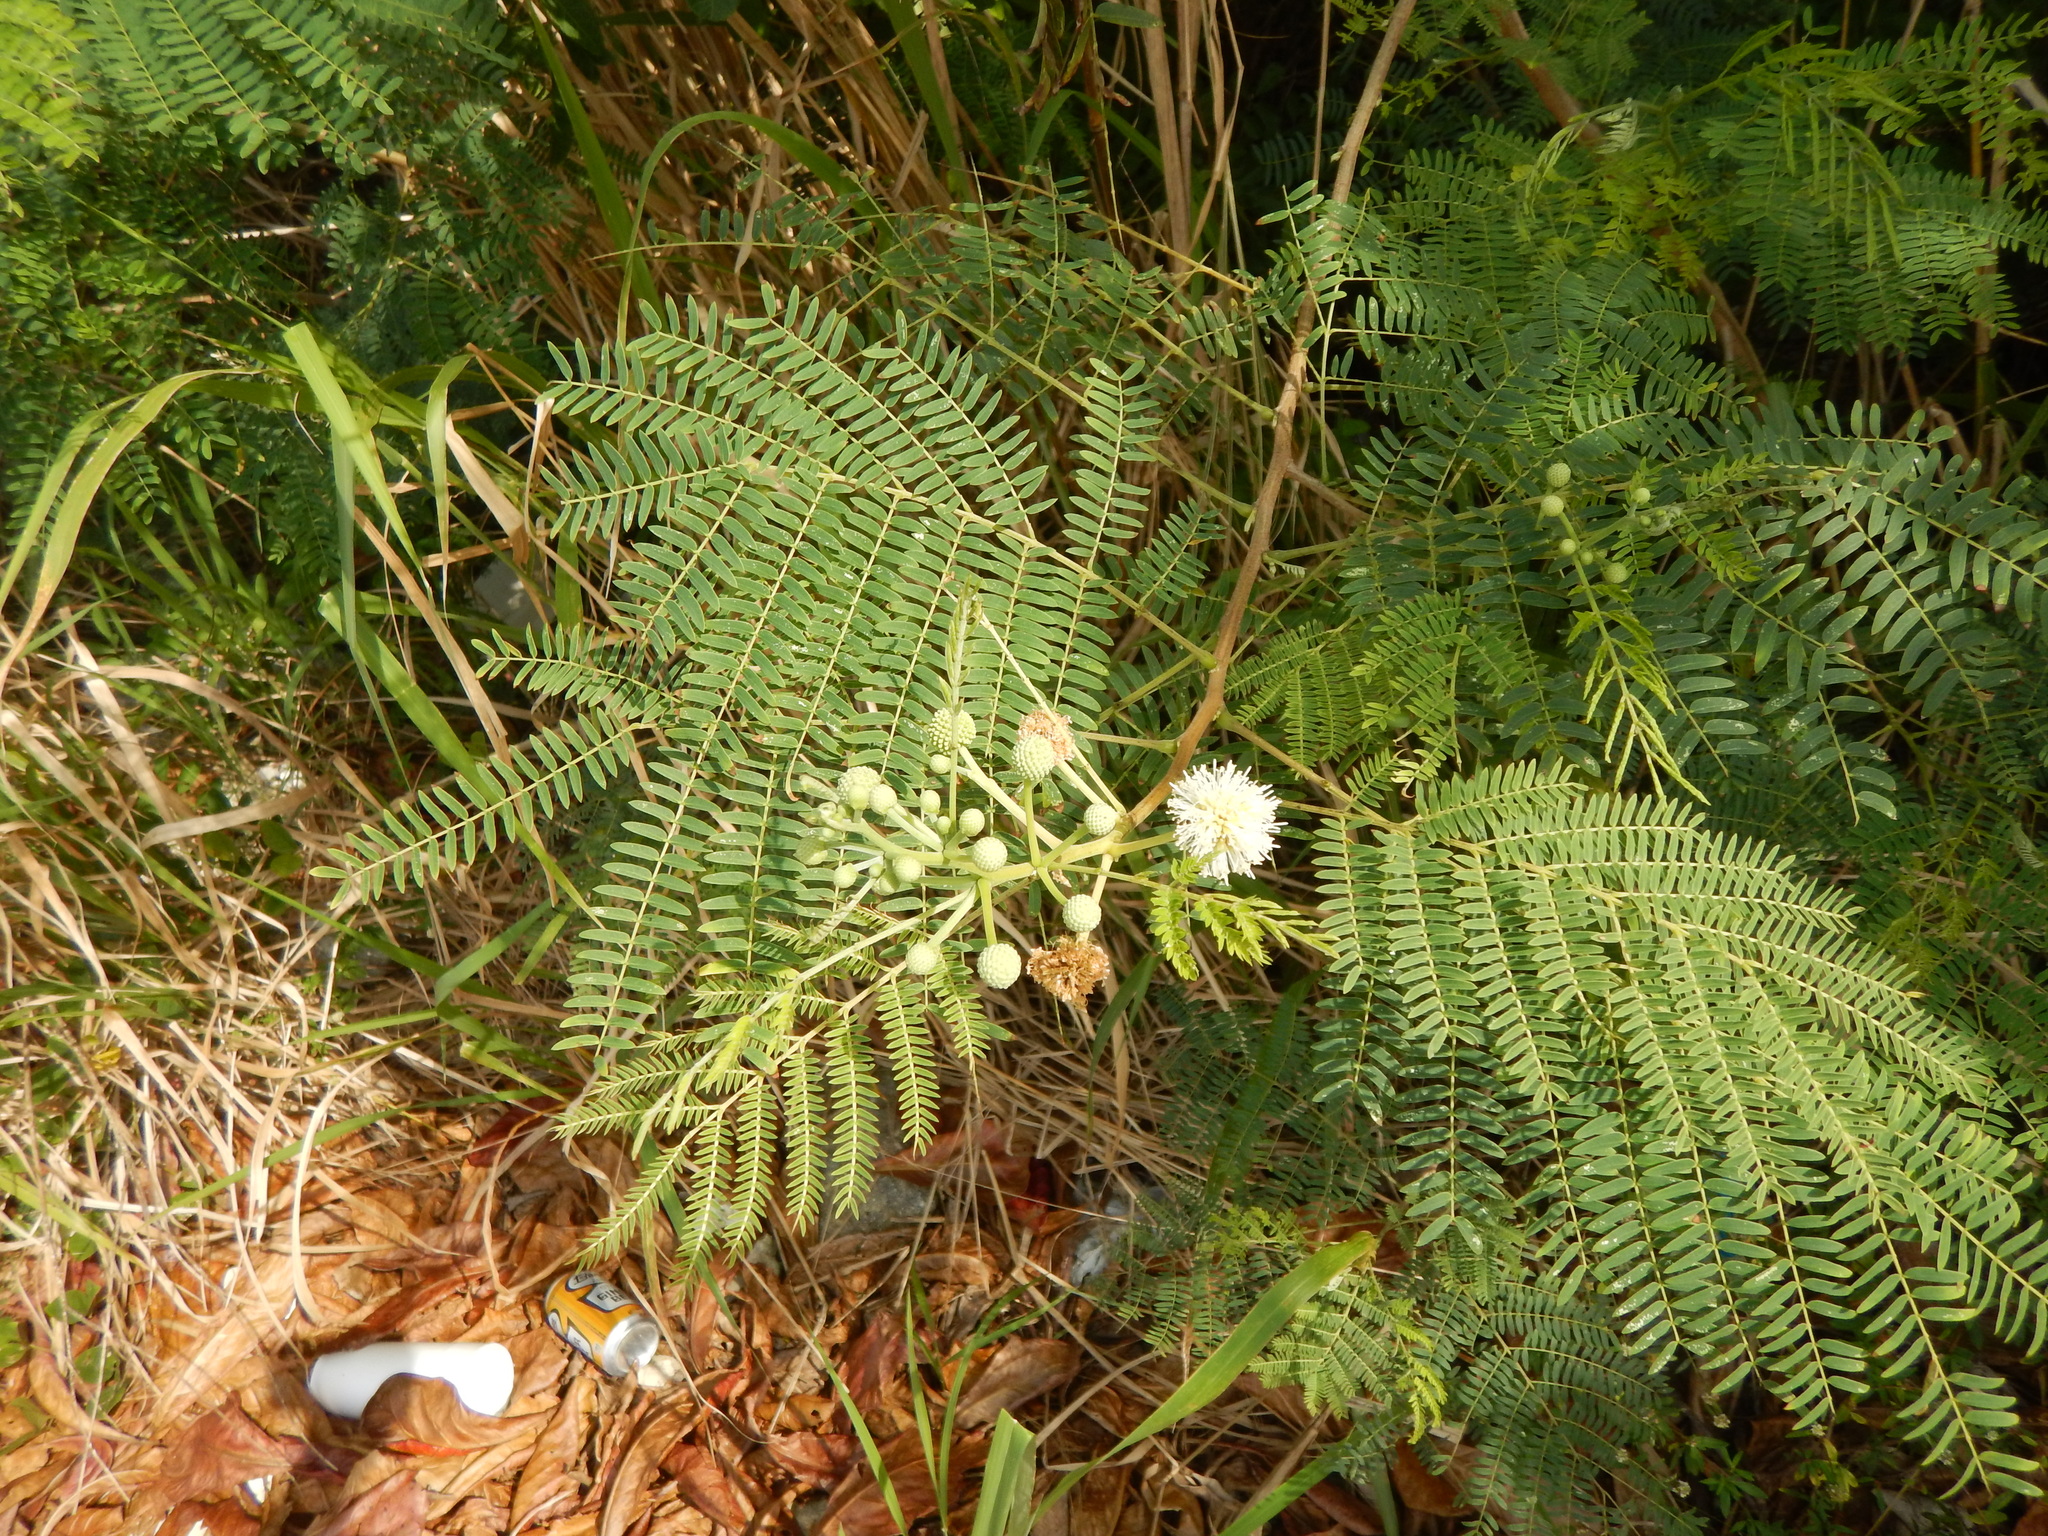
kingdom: Plantae
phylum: Tracheophyta
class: Magnoliopsida
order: Fabales
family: Fabaceae
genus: Leucaena
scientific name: Leucaena leucocephala
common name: White leadtree
